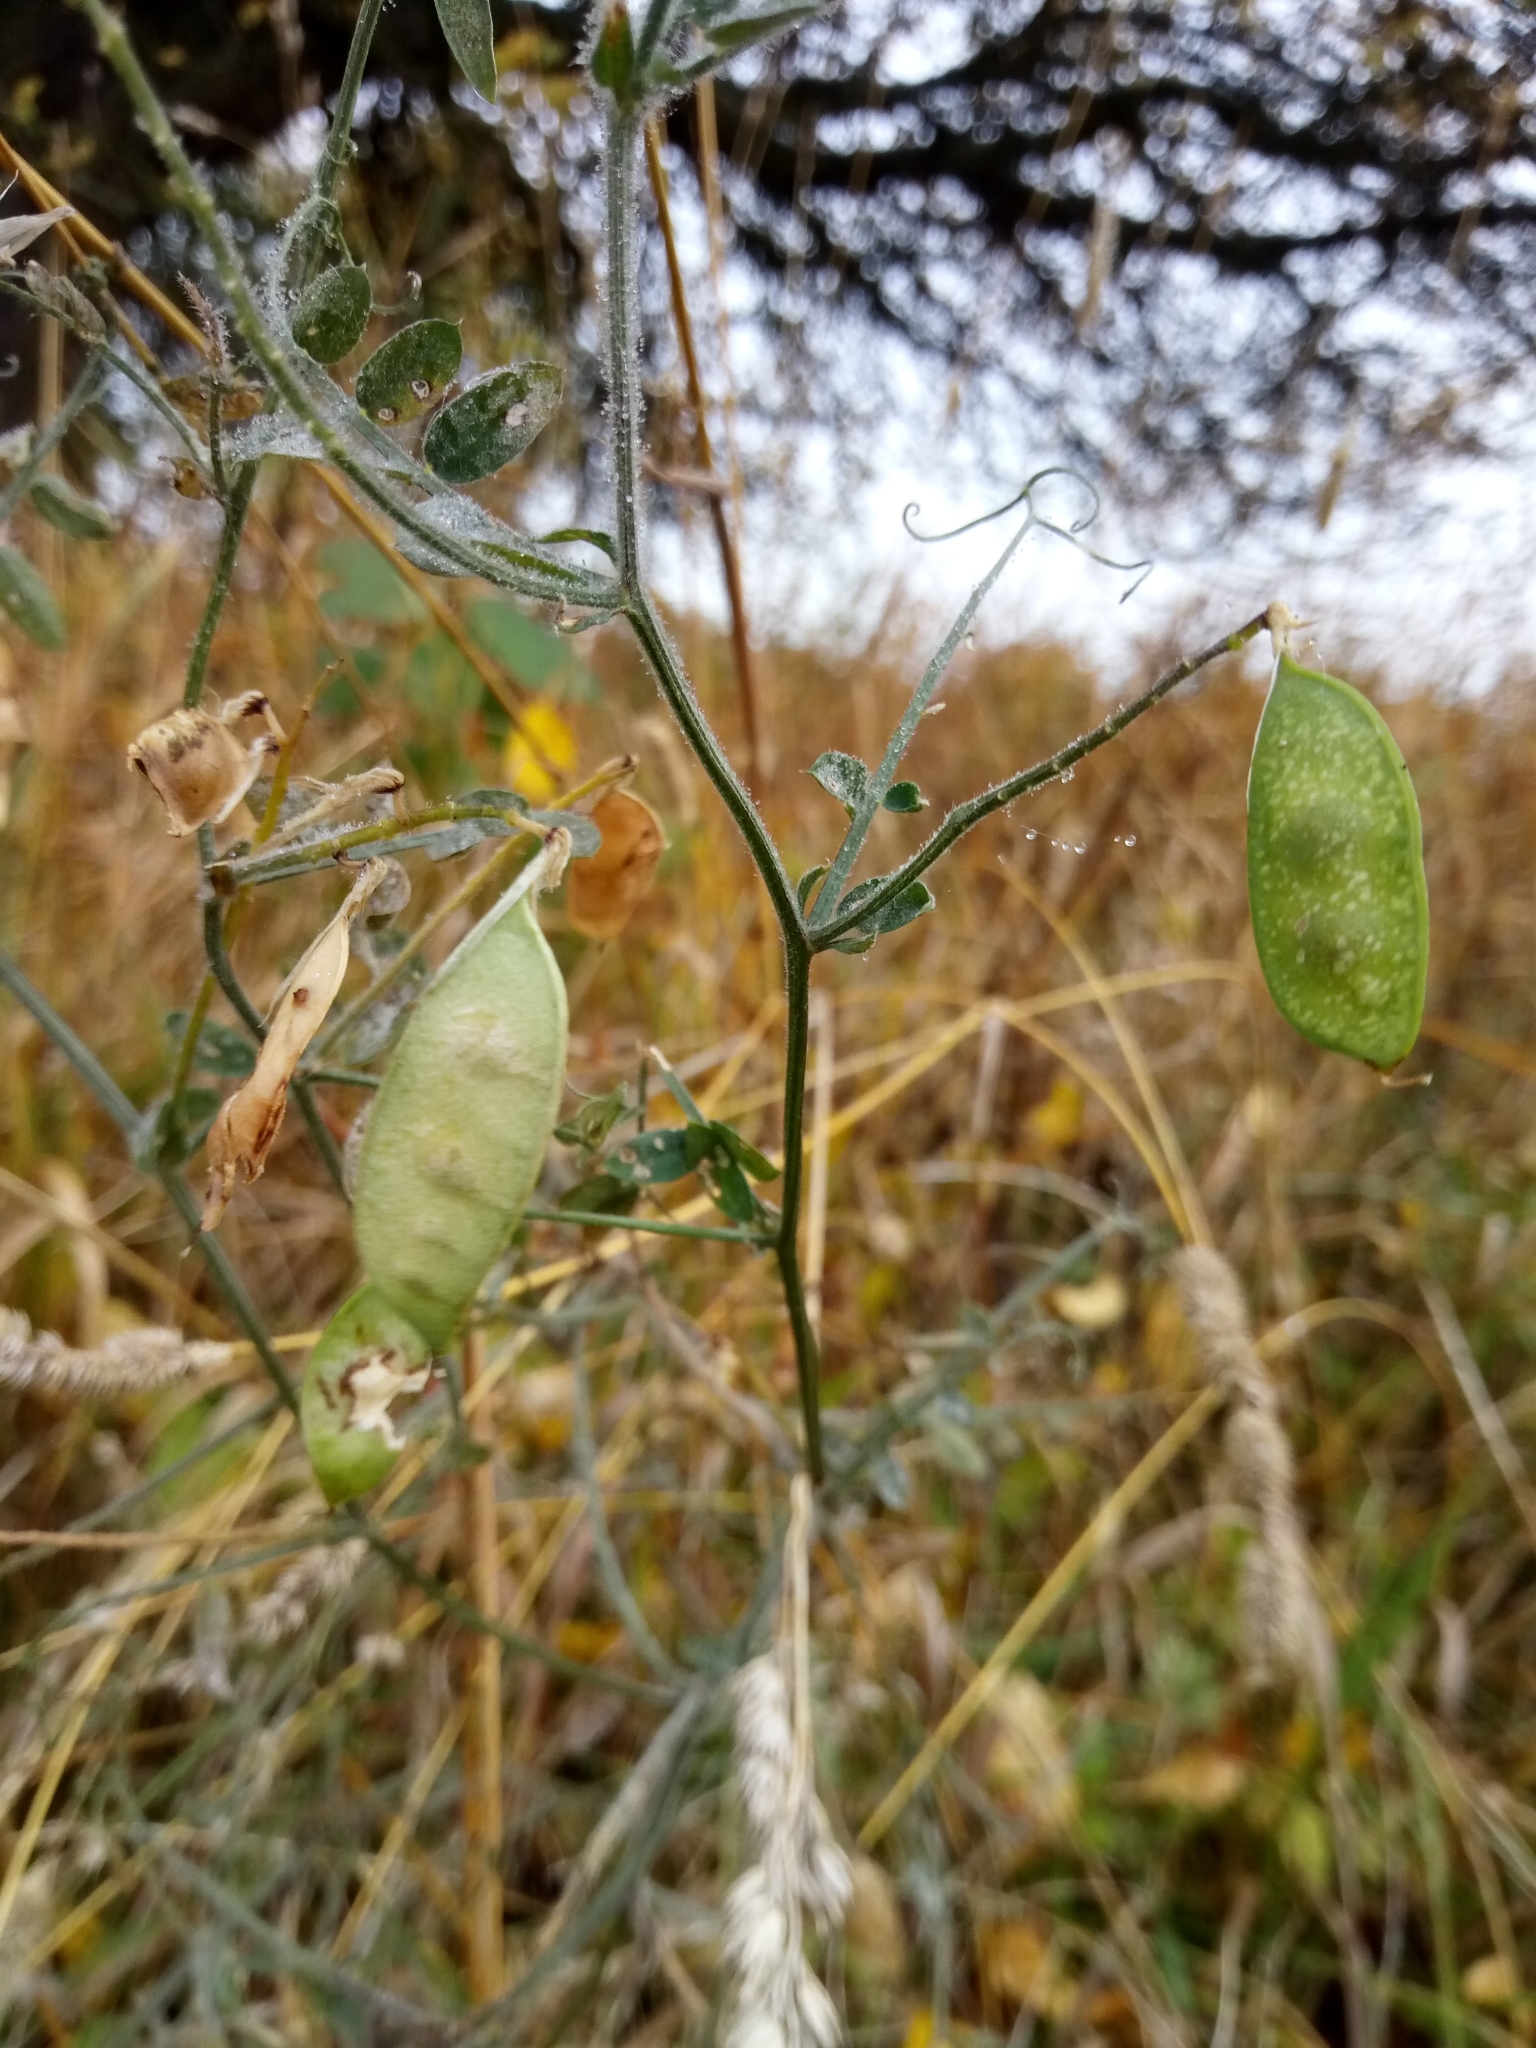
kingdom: Plantae
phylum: Tracheophyta
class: Magnoliopsida
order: Fabales
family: Fabaceae
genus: Vicia
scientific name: Vicia villosa
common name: Fodder vetch
